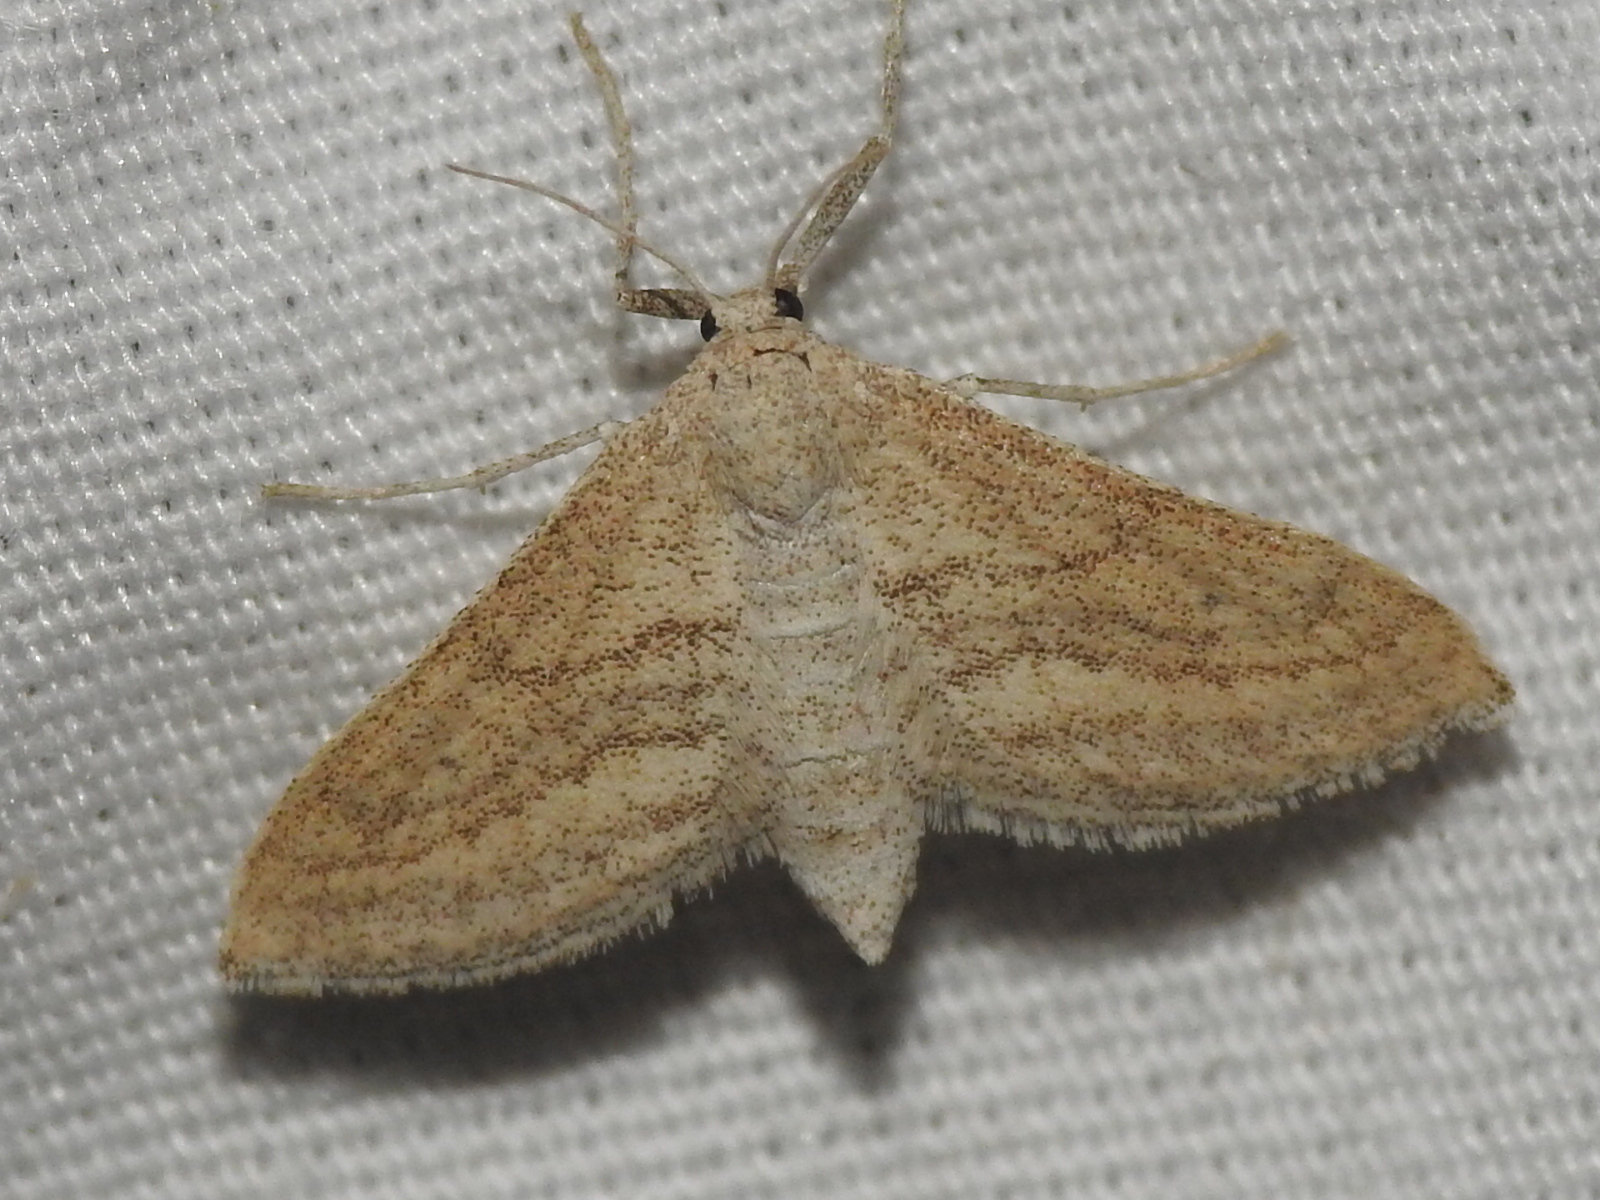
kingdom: Animalia
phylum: Arthropoda
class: Insecta
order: Lepidoptera
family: Geometridae
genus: Lobocleta
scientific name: Lobocleta plemyraria
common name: Straight-lined wave
